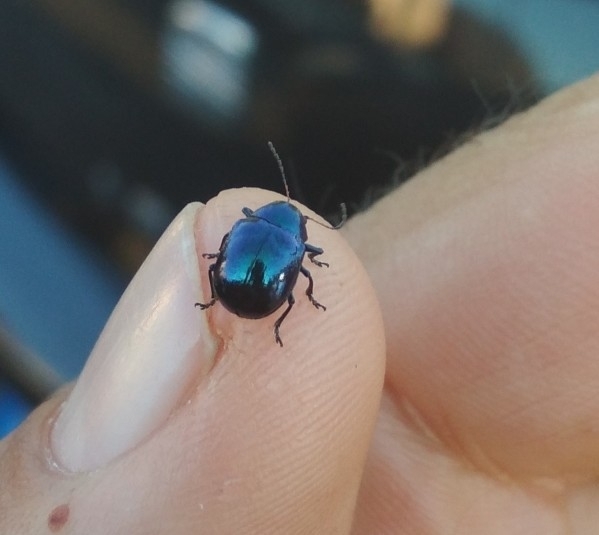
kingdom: Animalia
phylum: Arthropoda
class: Insecta
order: Coleoptera
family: Chrysomelidae
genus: Colasposoma
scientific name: Colasposoma dauricum
